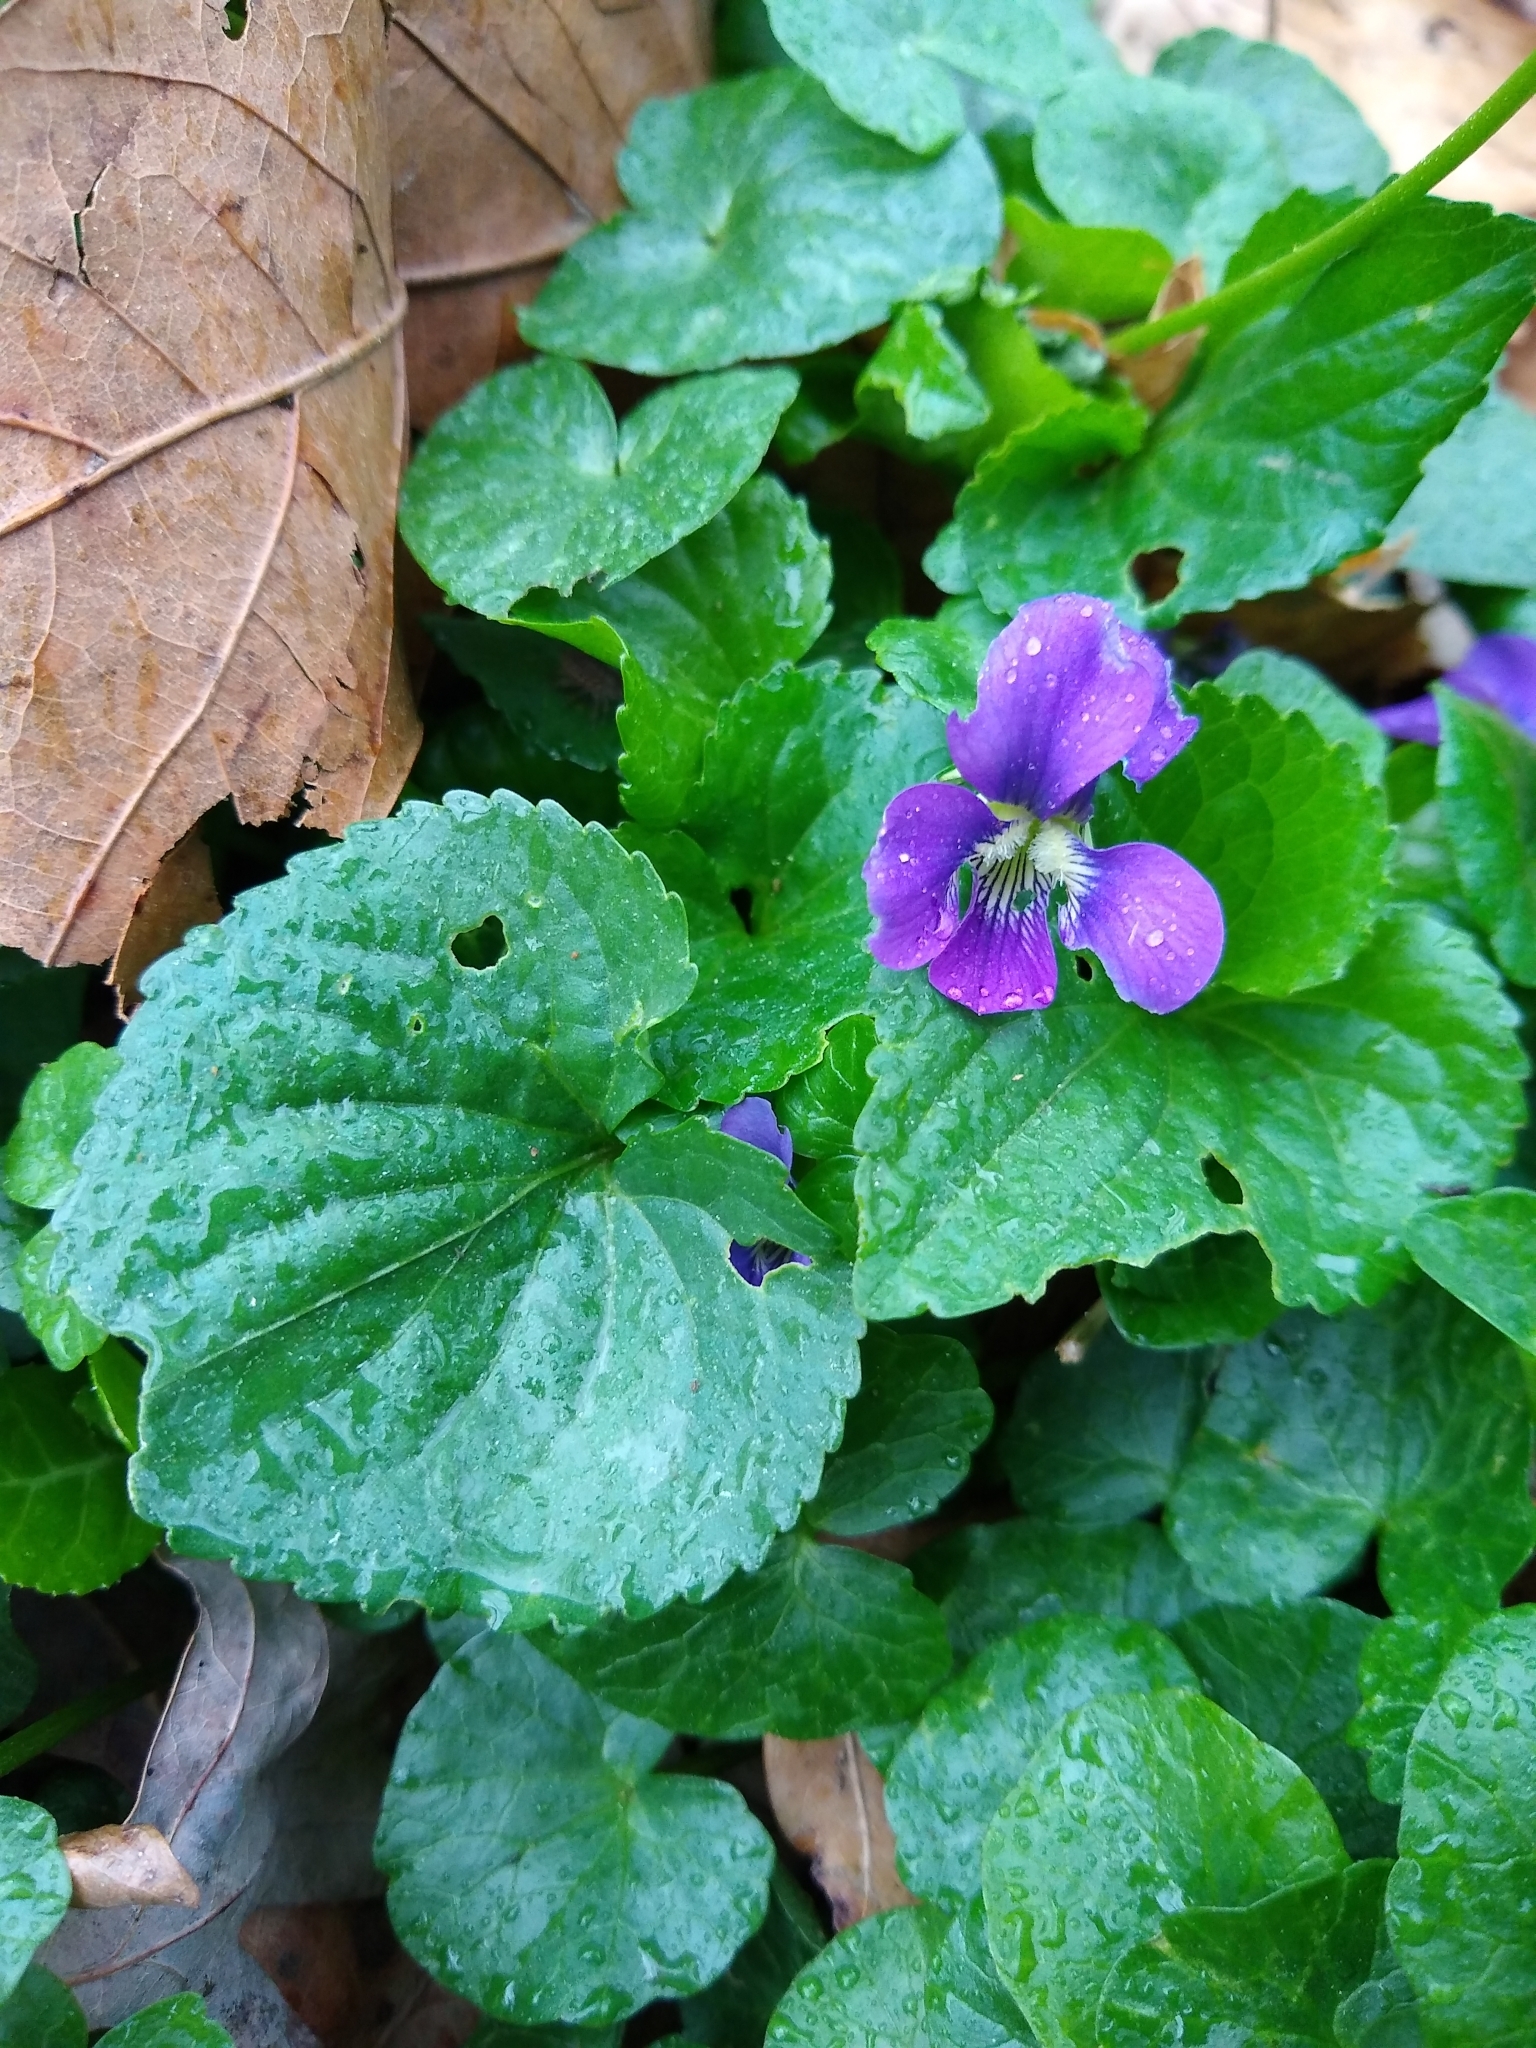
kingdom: Plantae
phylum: Tracheophyta
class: Magnoliopsida
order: Malpighiales
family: Violaceae
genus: Viola
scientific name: Viola sororia
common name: Dooryard violet
